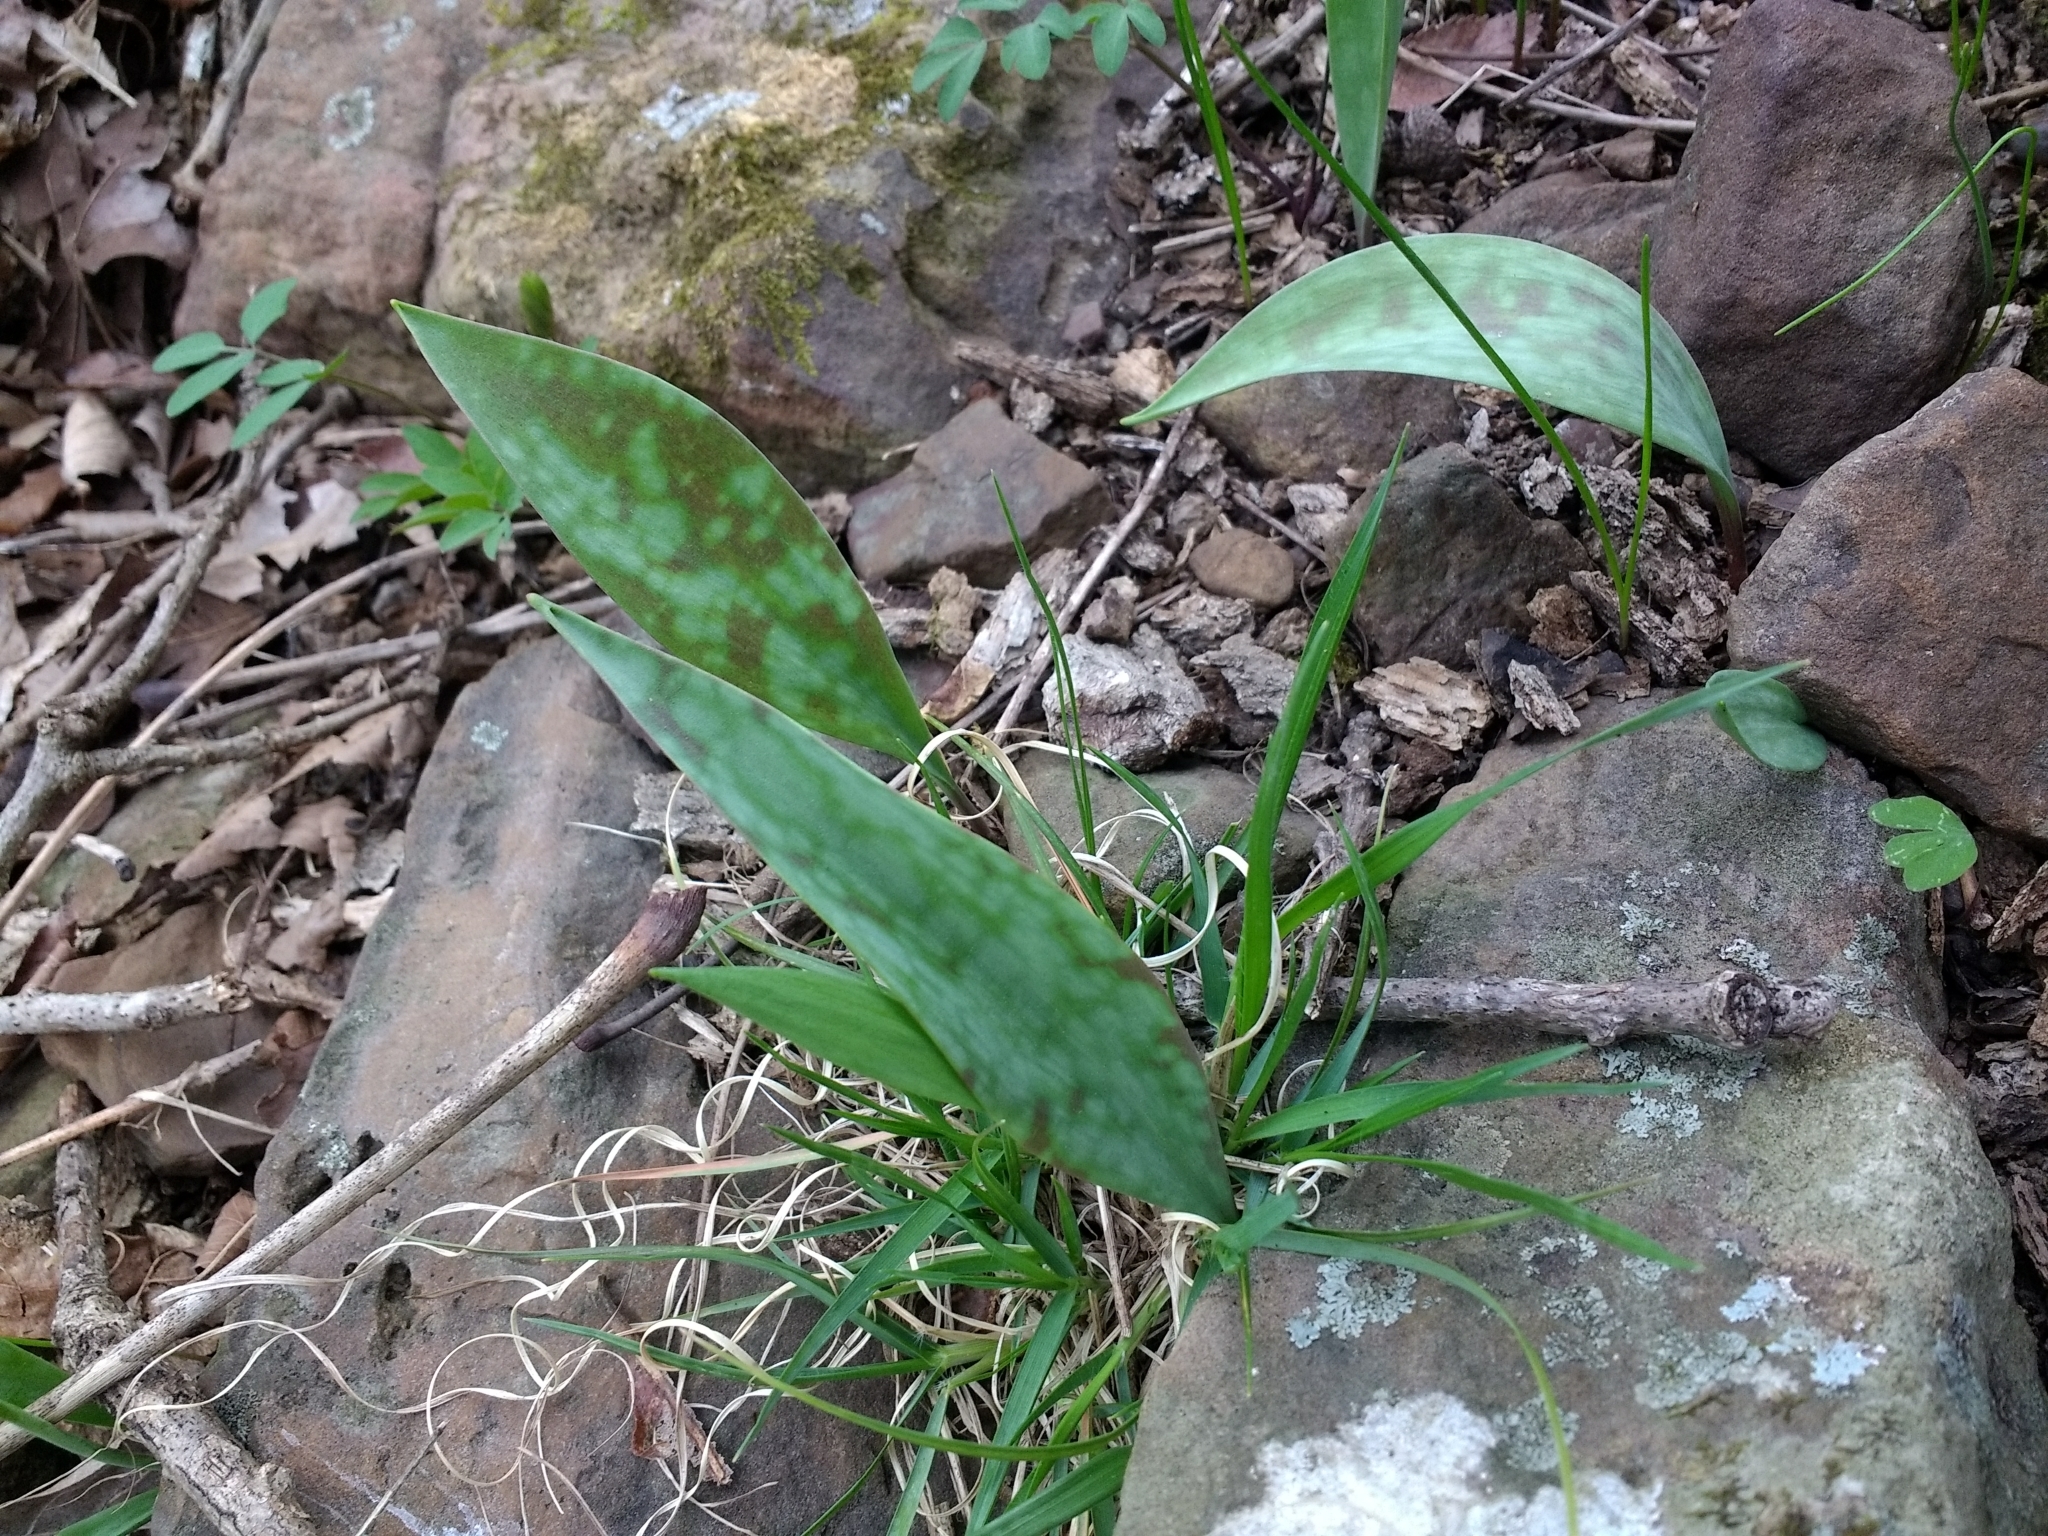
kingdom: Plantae
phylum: Tracheophyta
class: Liliopsida
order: Liliales
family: Liliaceae
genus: Erythronium
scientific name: Erythronium albidum
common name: White trout-lily
